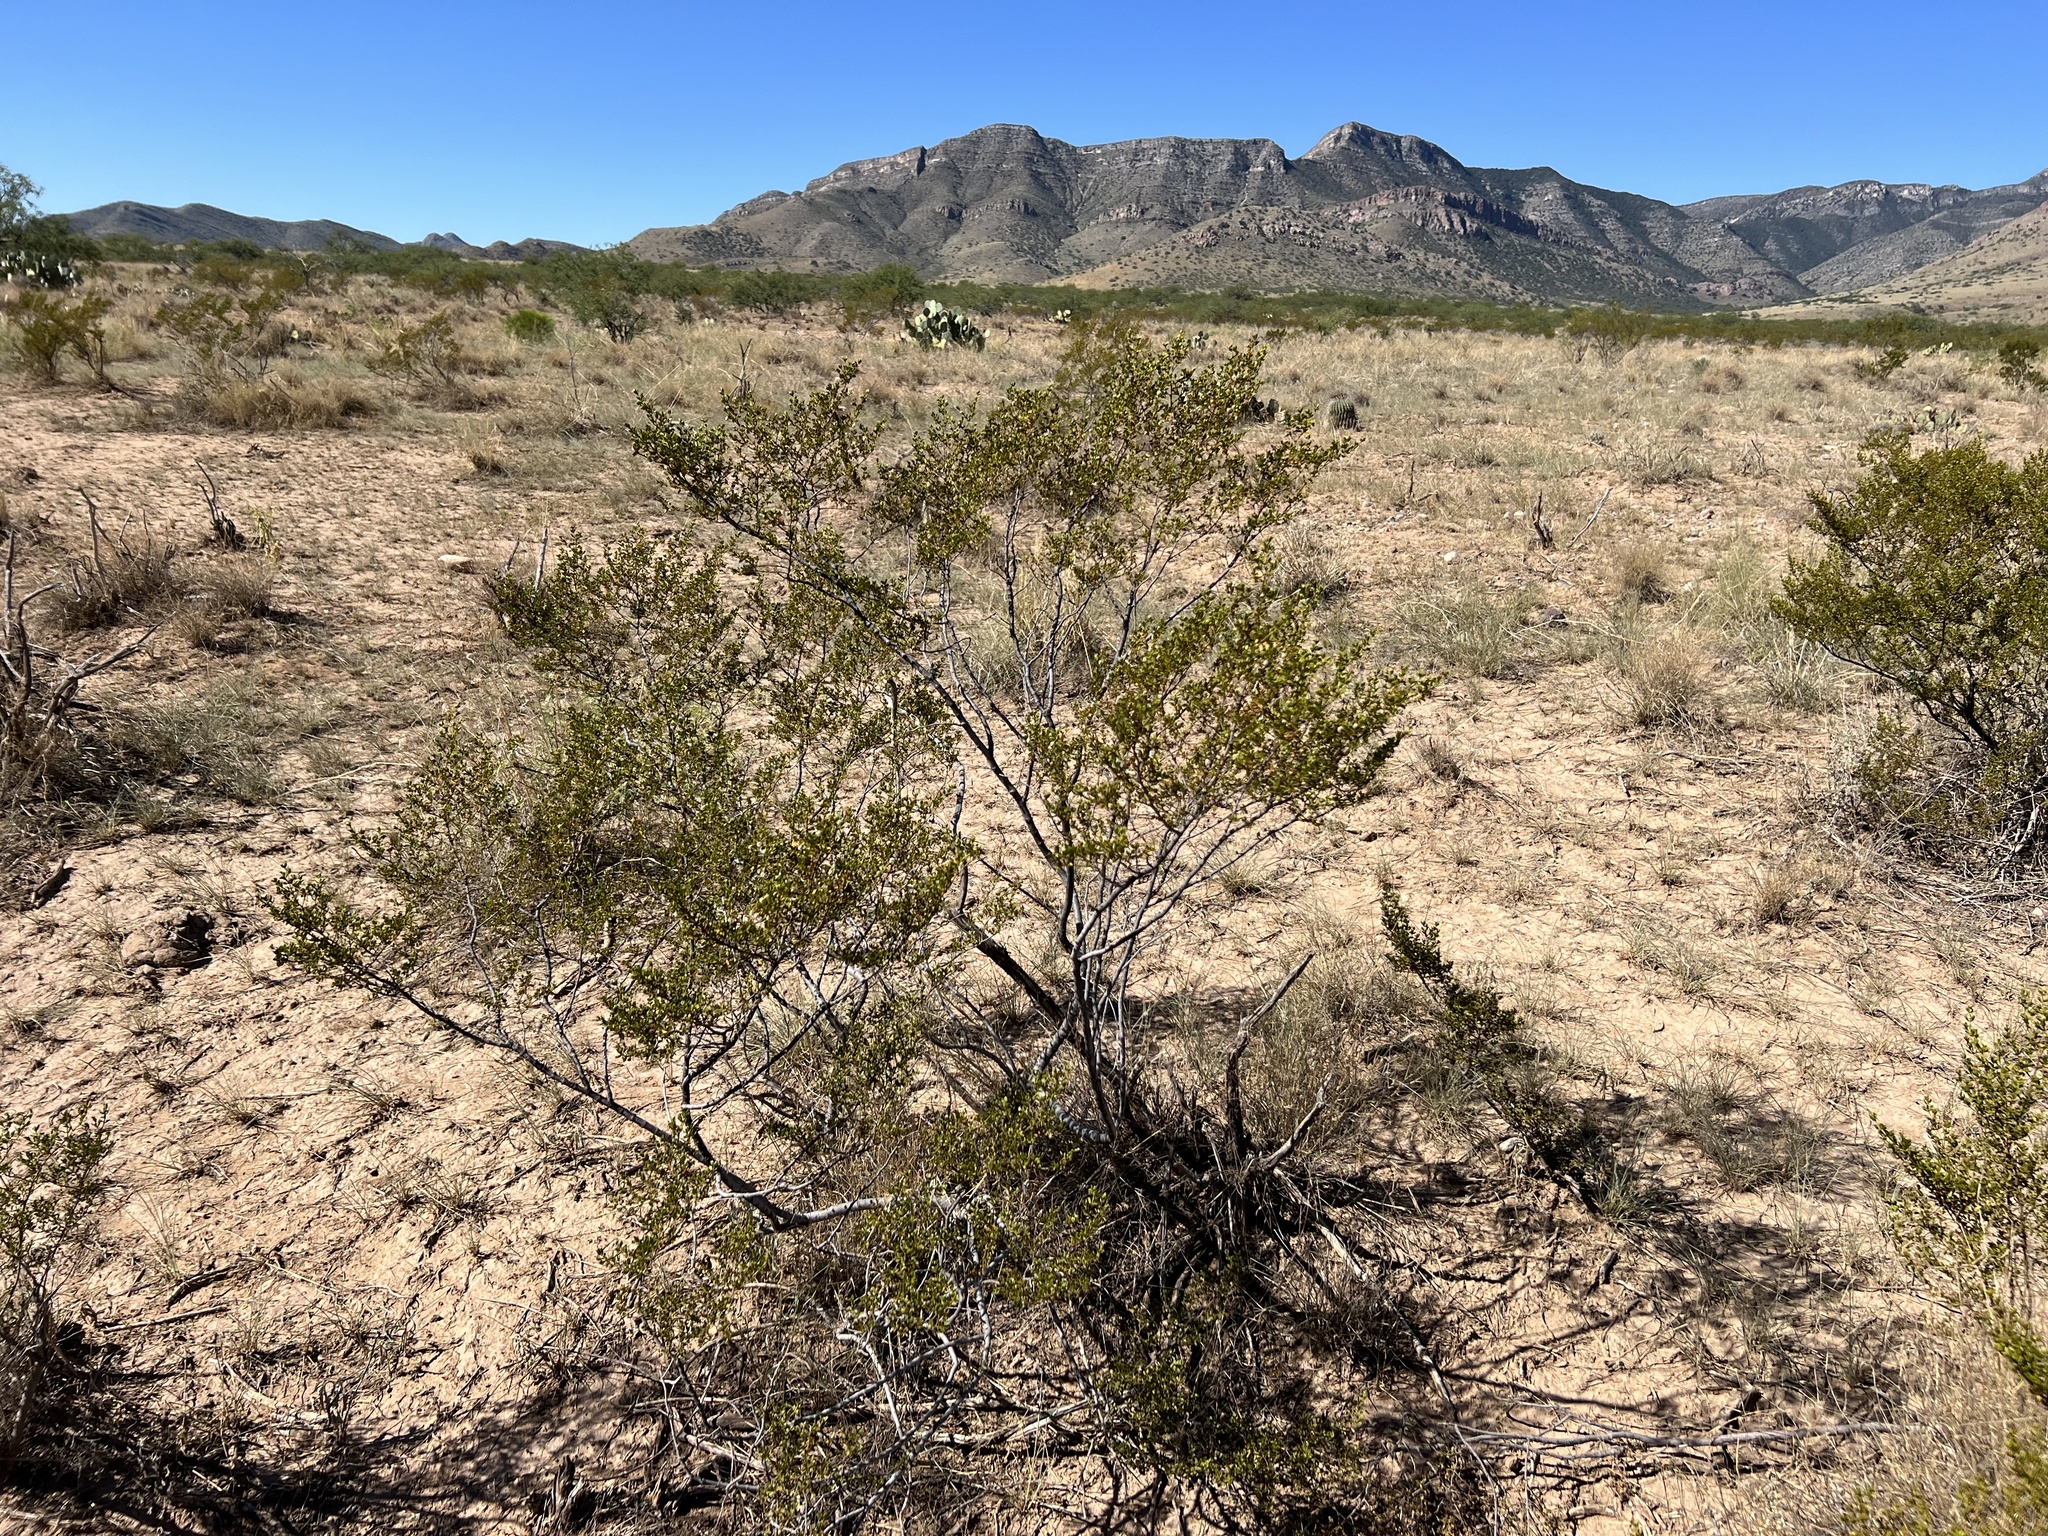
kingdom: Plantae
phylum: Tracheophyta
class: Magnoliopsida
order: Zygophyllales
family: Zygophyllaceae
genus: Larrea
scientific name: Larrea tridentata
